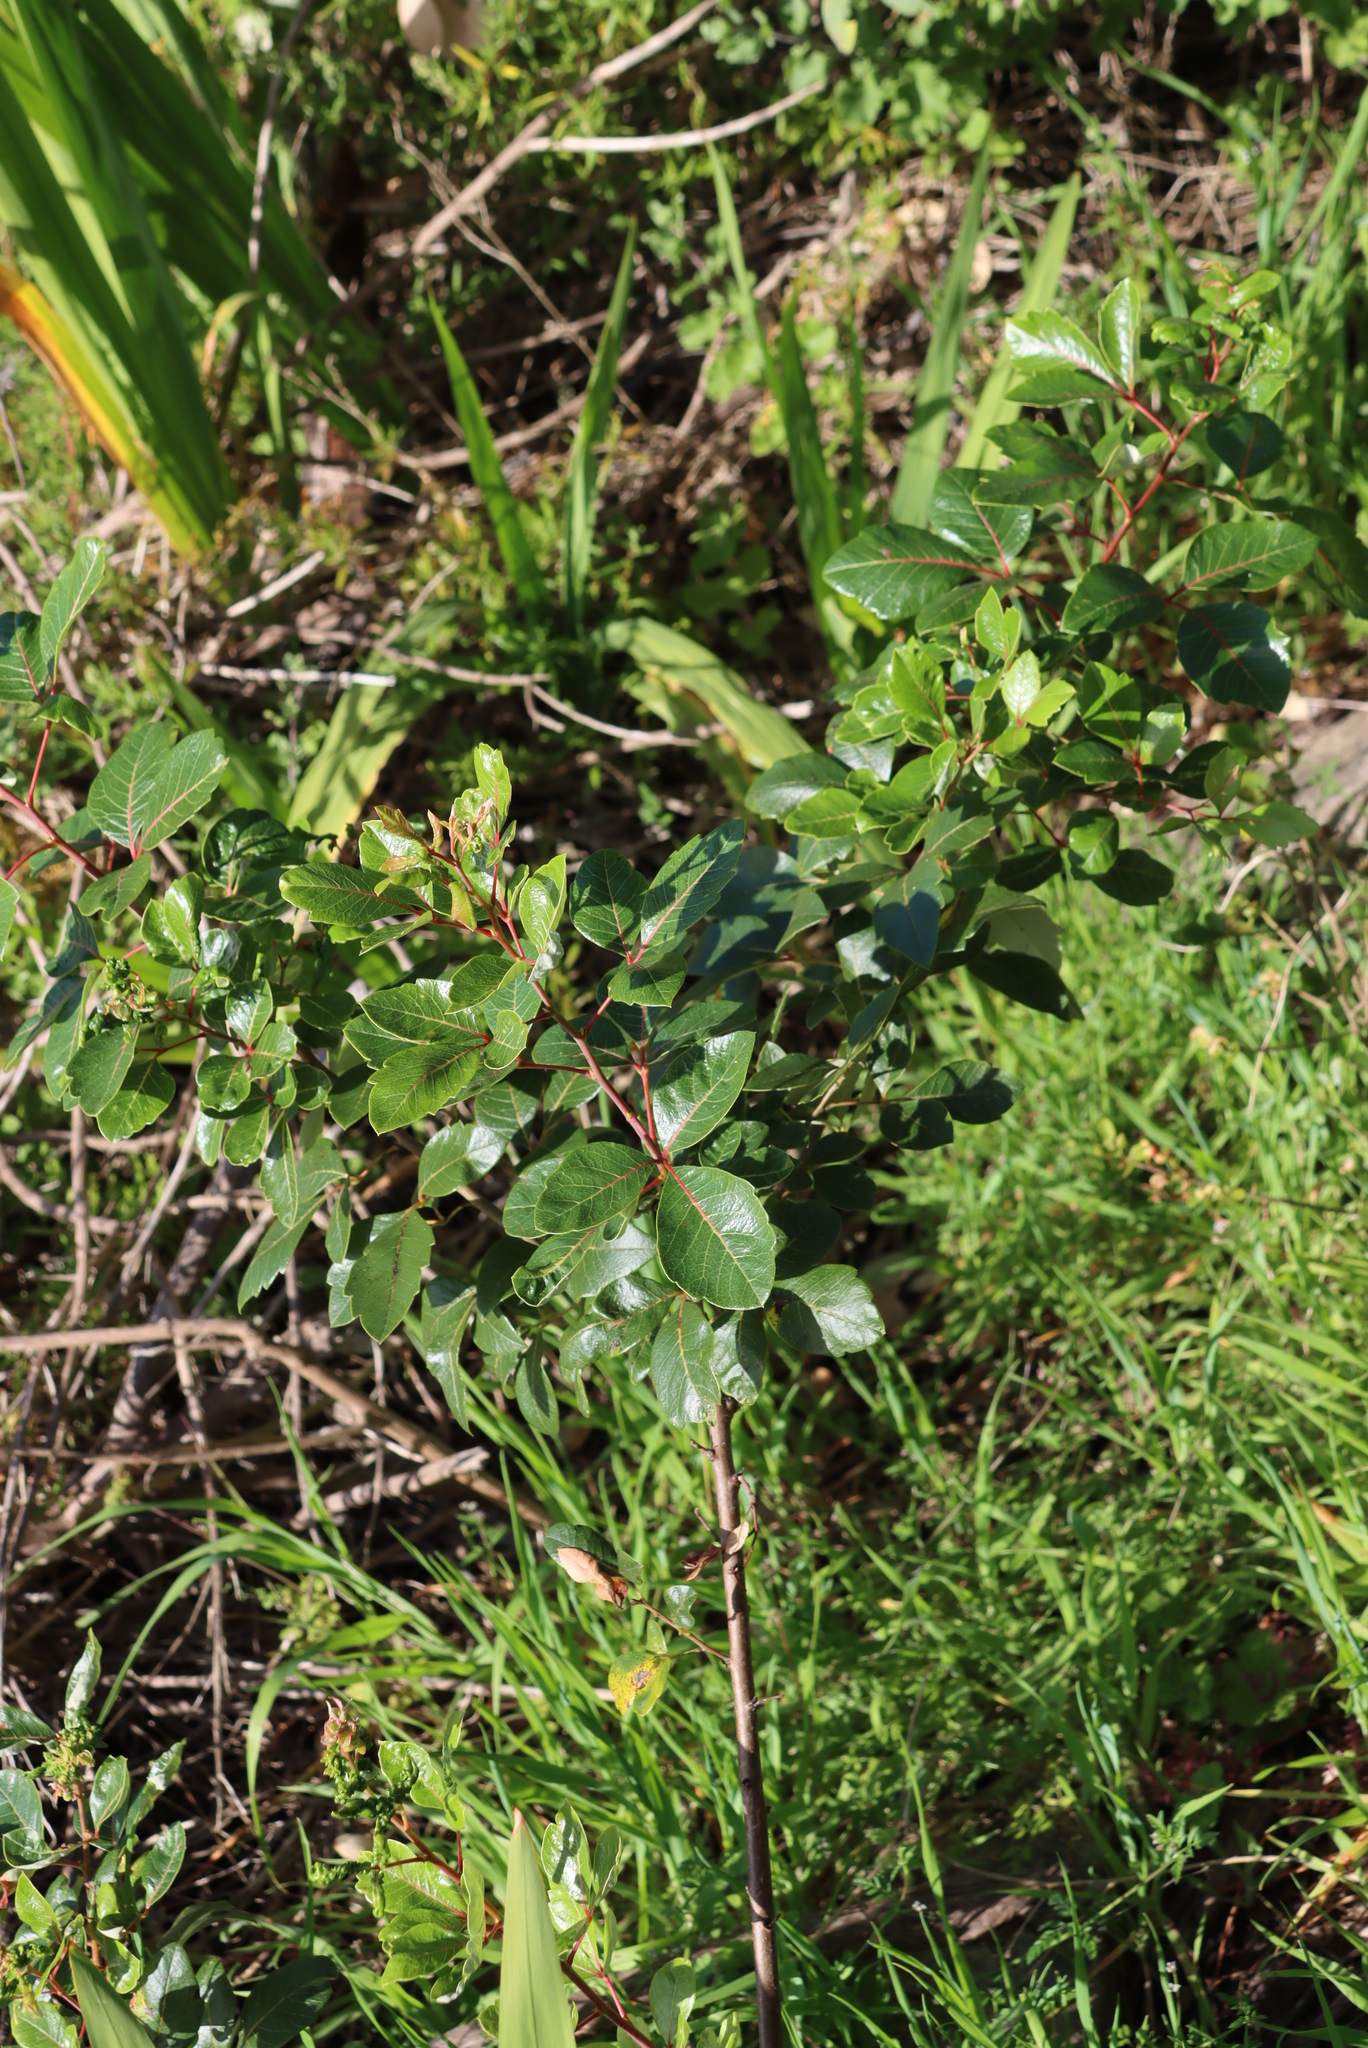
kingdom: Plantae
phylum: Tracheophyta
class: Magnoliopsida
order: Sapindales
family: Anacardiaceae
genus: Searsia
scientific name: Searsia tomentosa
